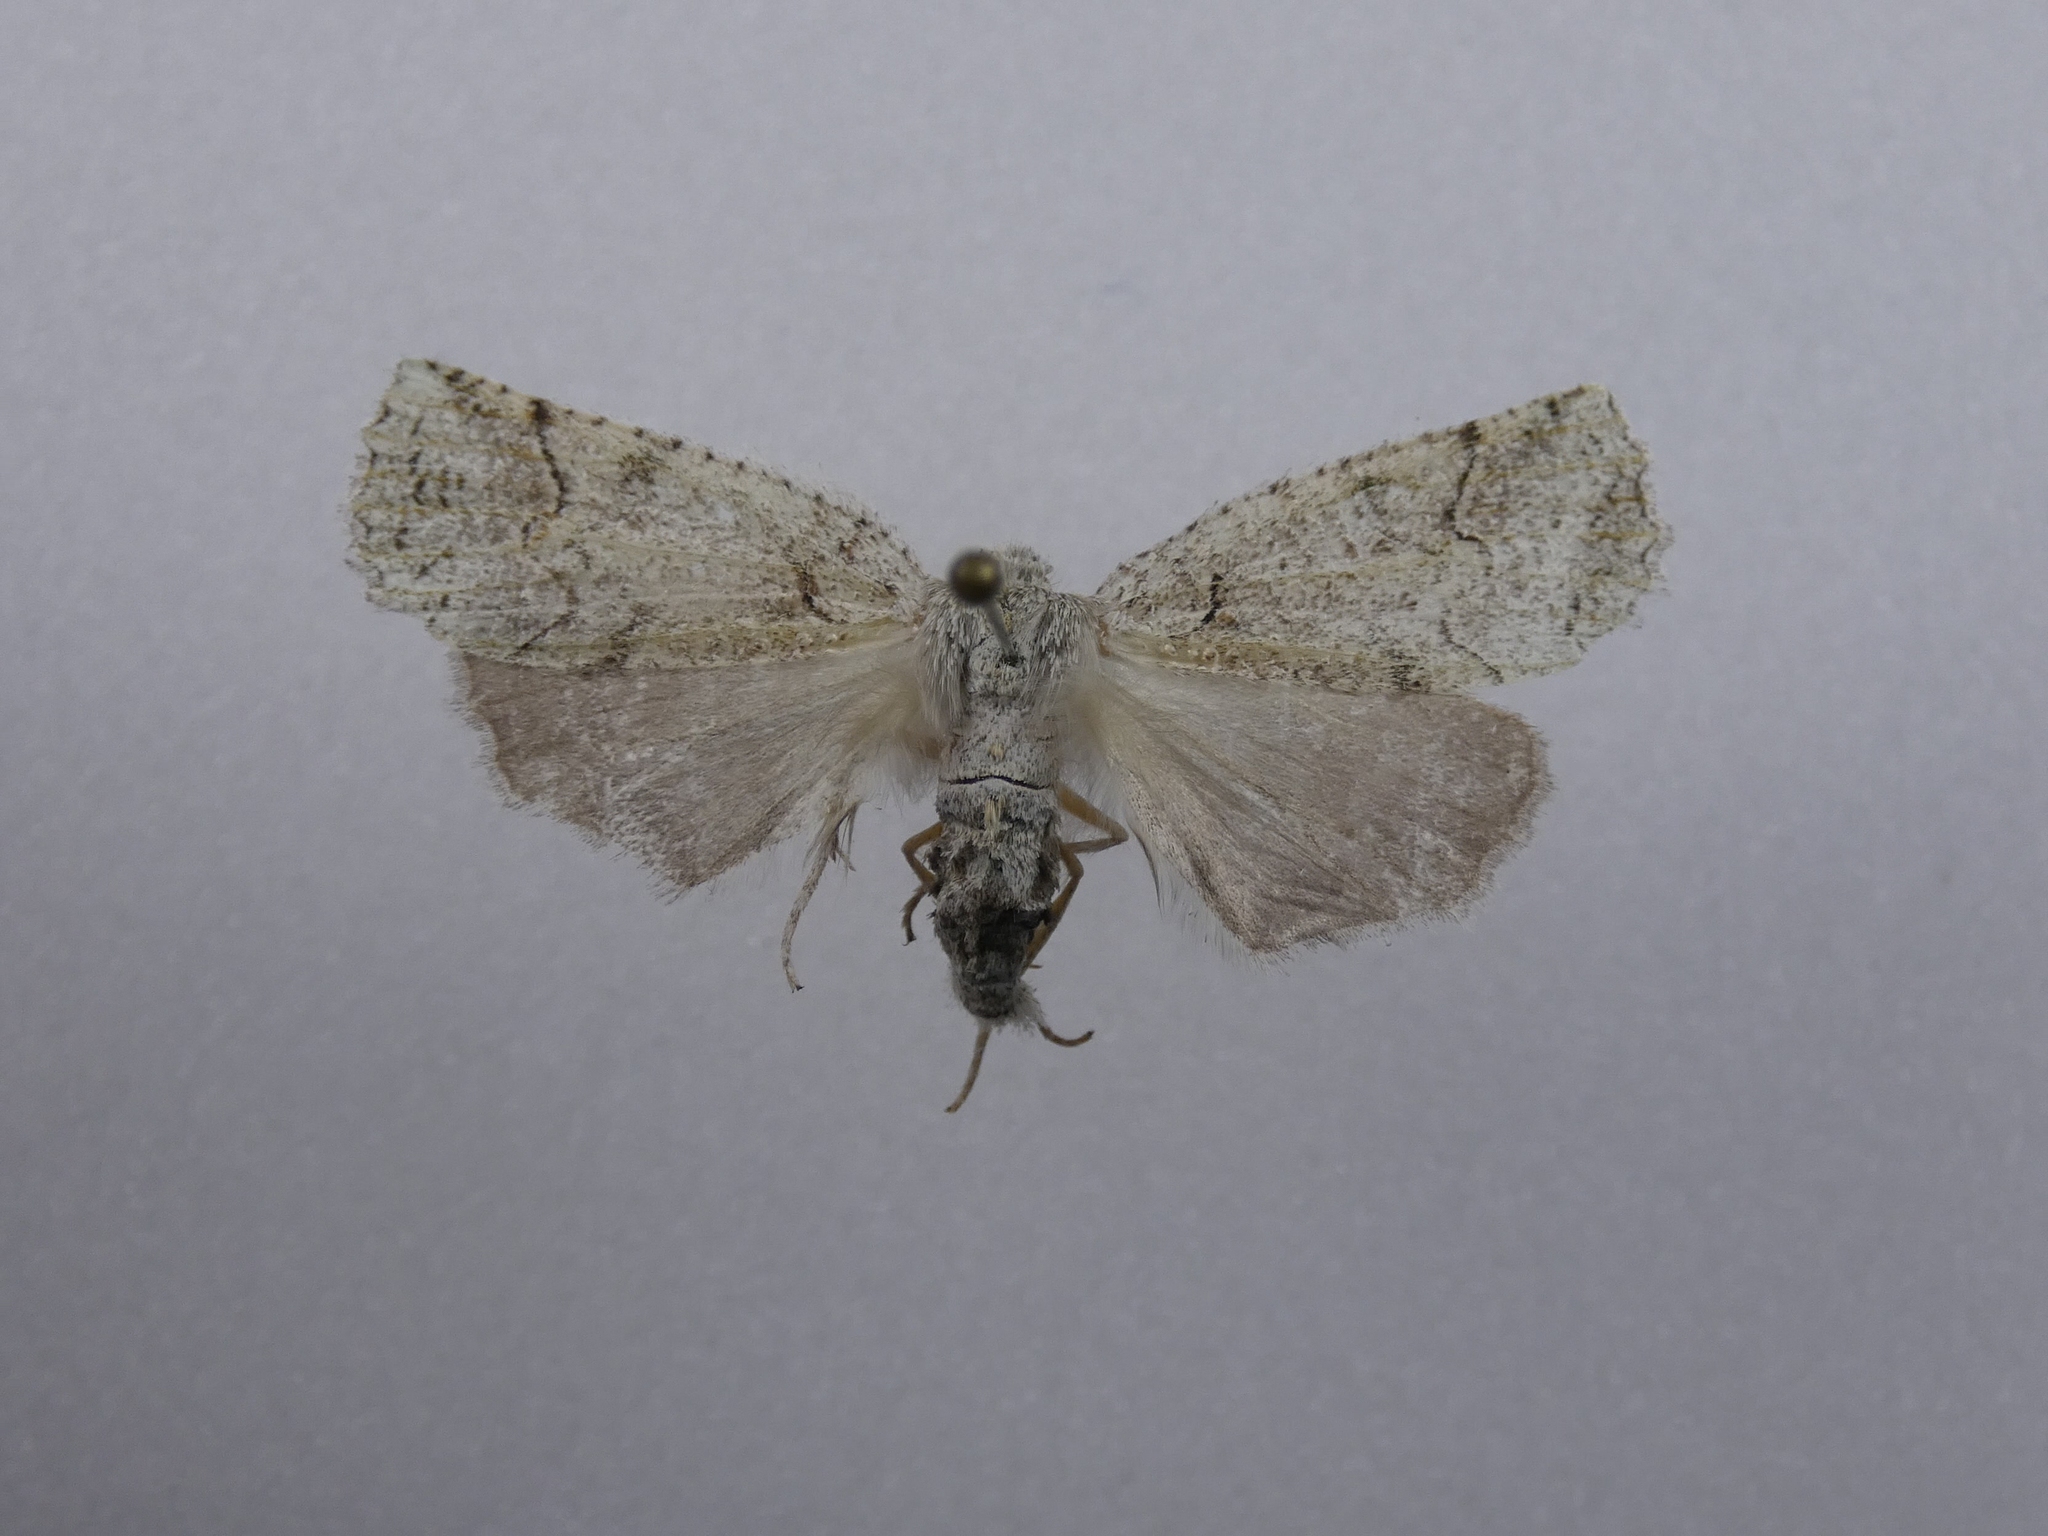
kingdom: Animalia
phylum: Arthropoda
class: Insecta
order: Lepidoptera
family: Geometridae
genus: Declana
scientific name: Declana floccosa
